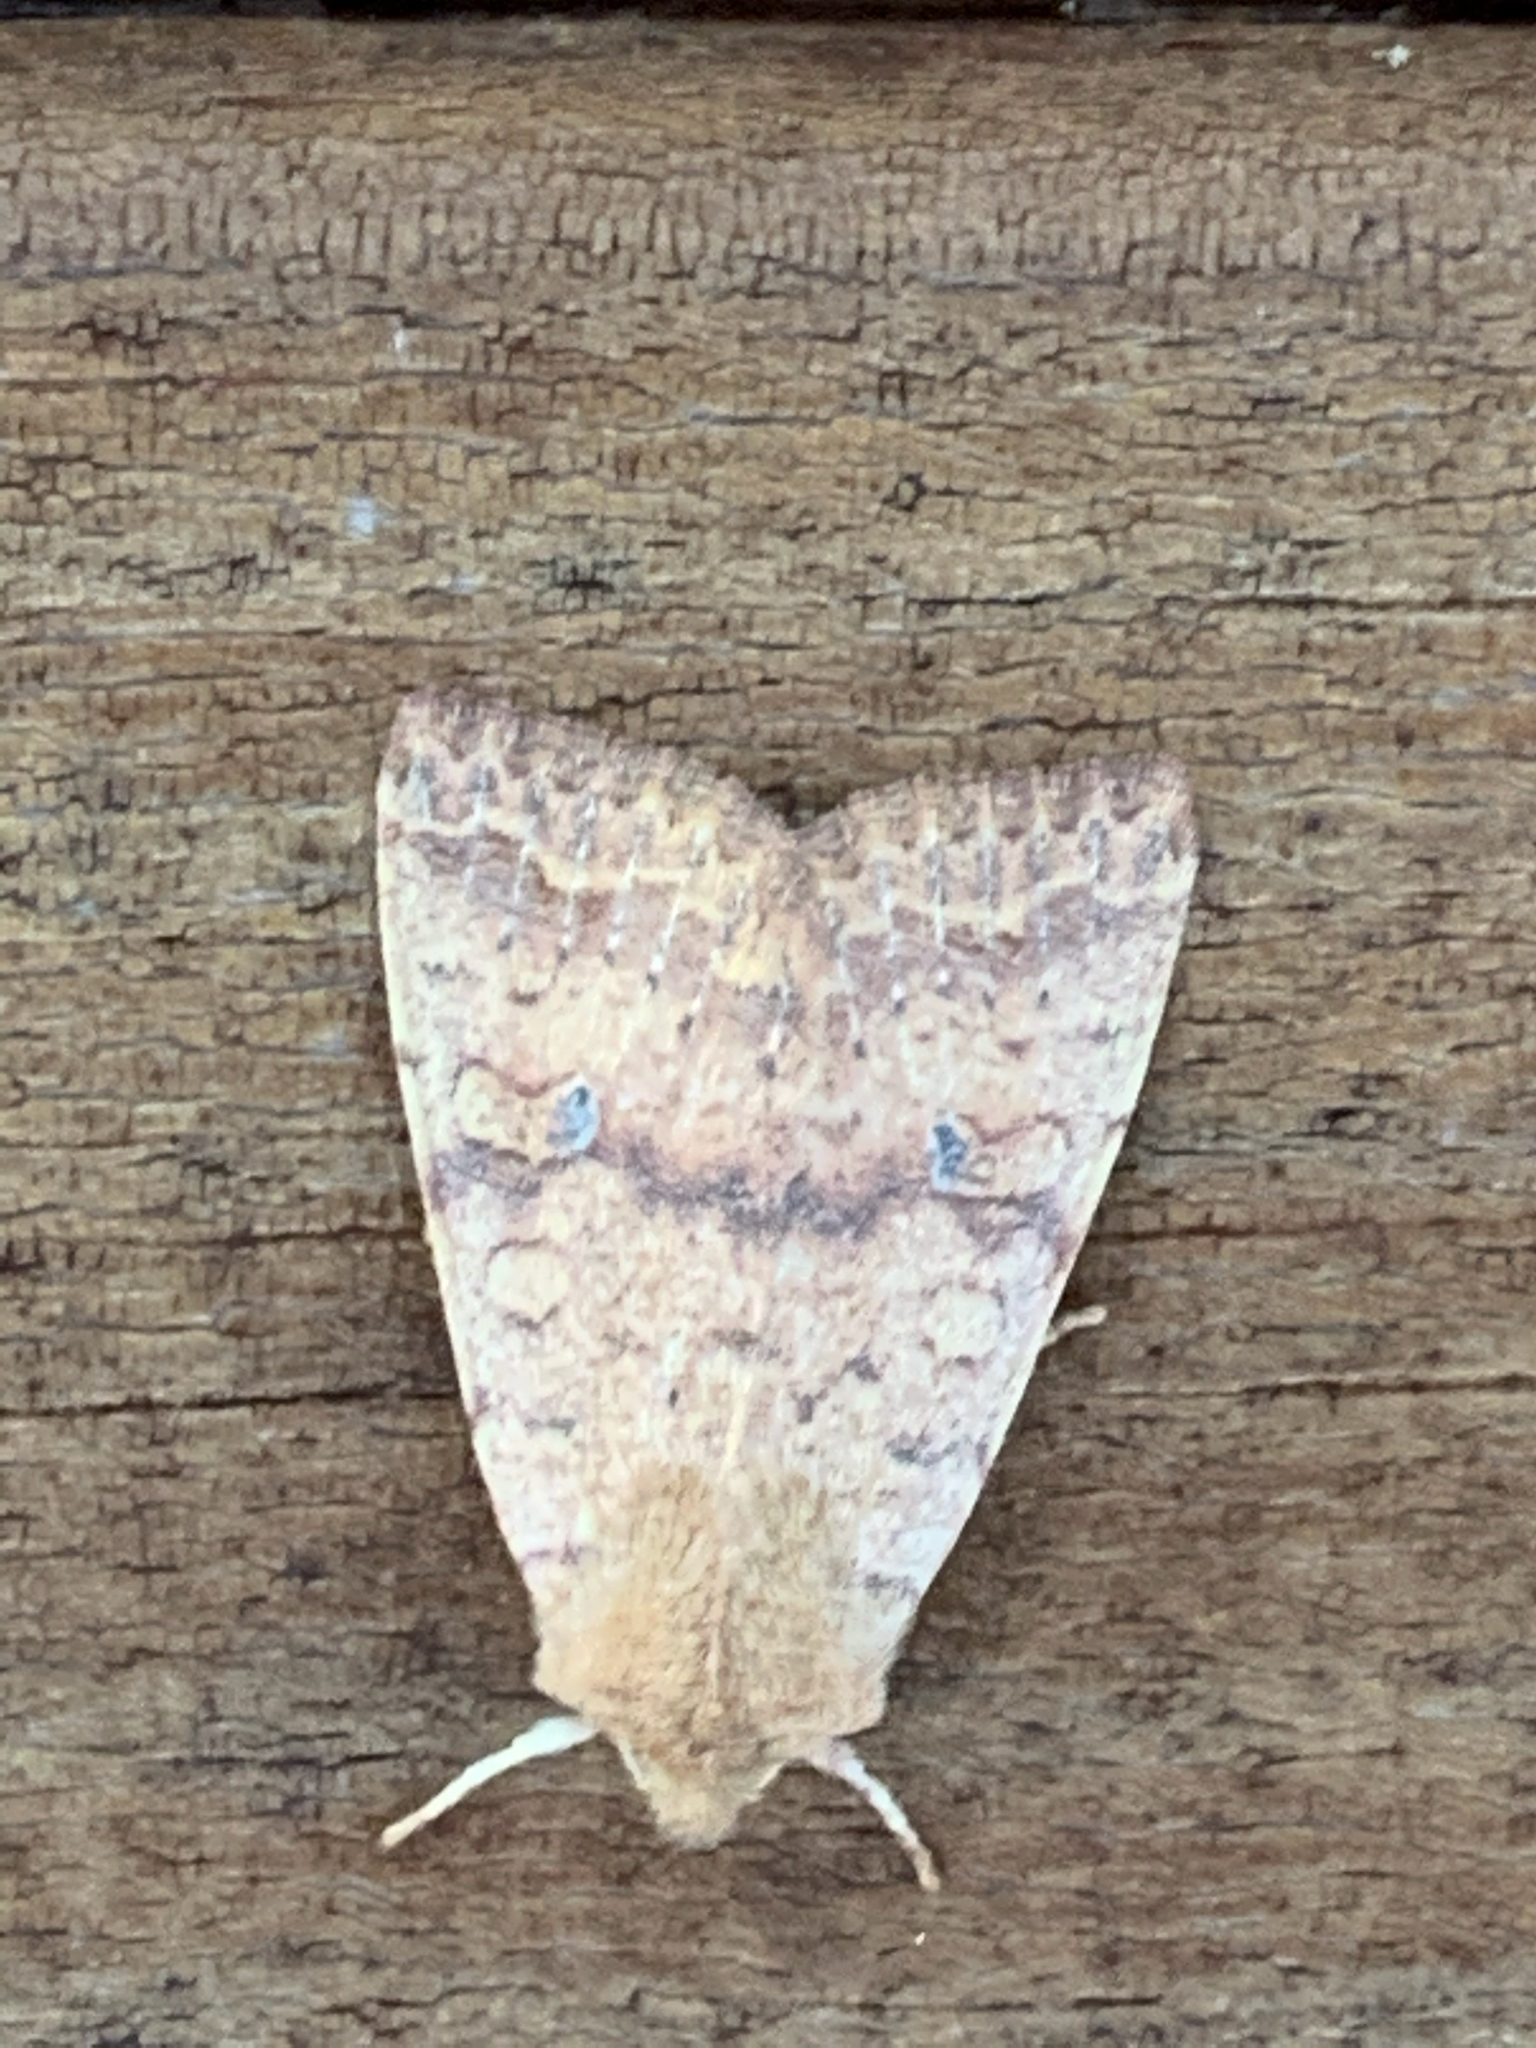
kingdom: Animalia
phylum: Arthropoda
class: Insecta
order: Lepidoptera
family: Noctuidae
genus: Agrochola
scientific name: Agrochola bicolorago
